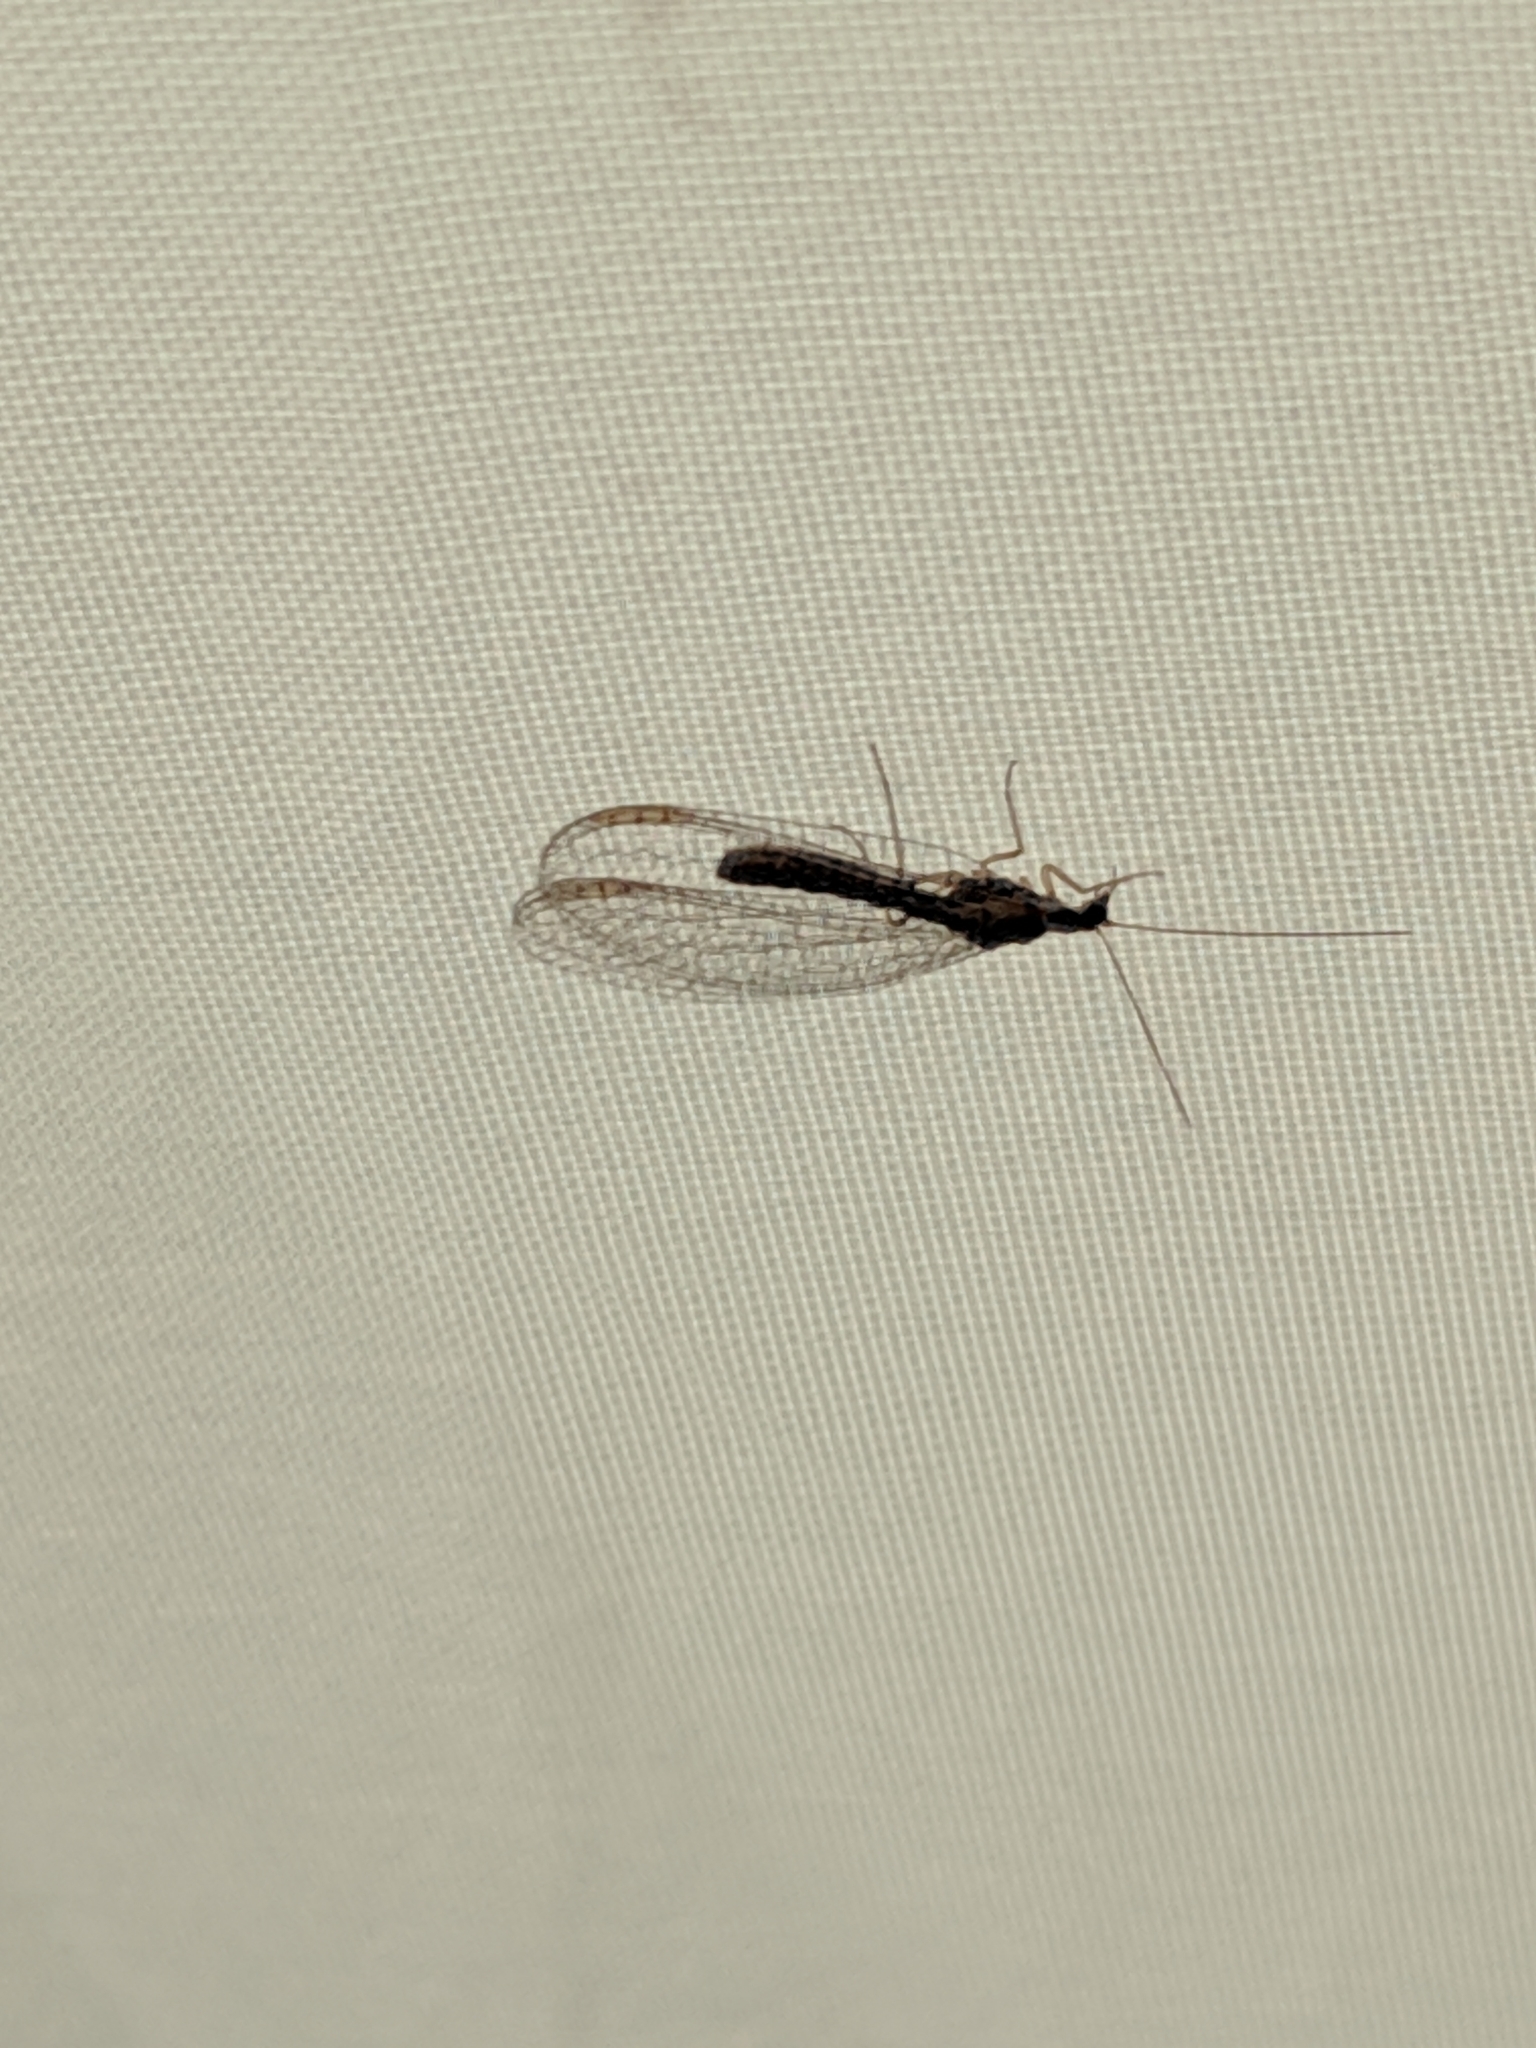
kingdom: Animalia
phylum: Arthropoda
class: Insecta
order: Neuroptera
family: Chrysopidae
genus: Eremochrysa
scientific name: Eremochrysa punctinervis
